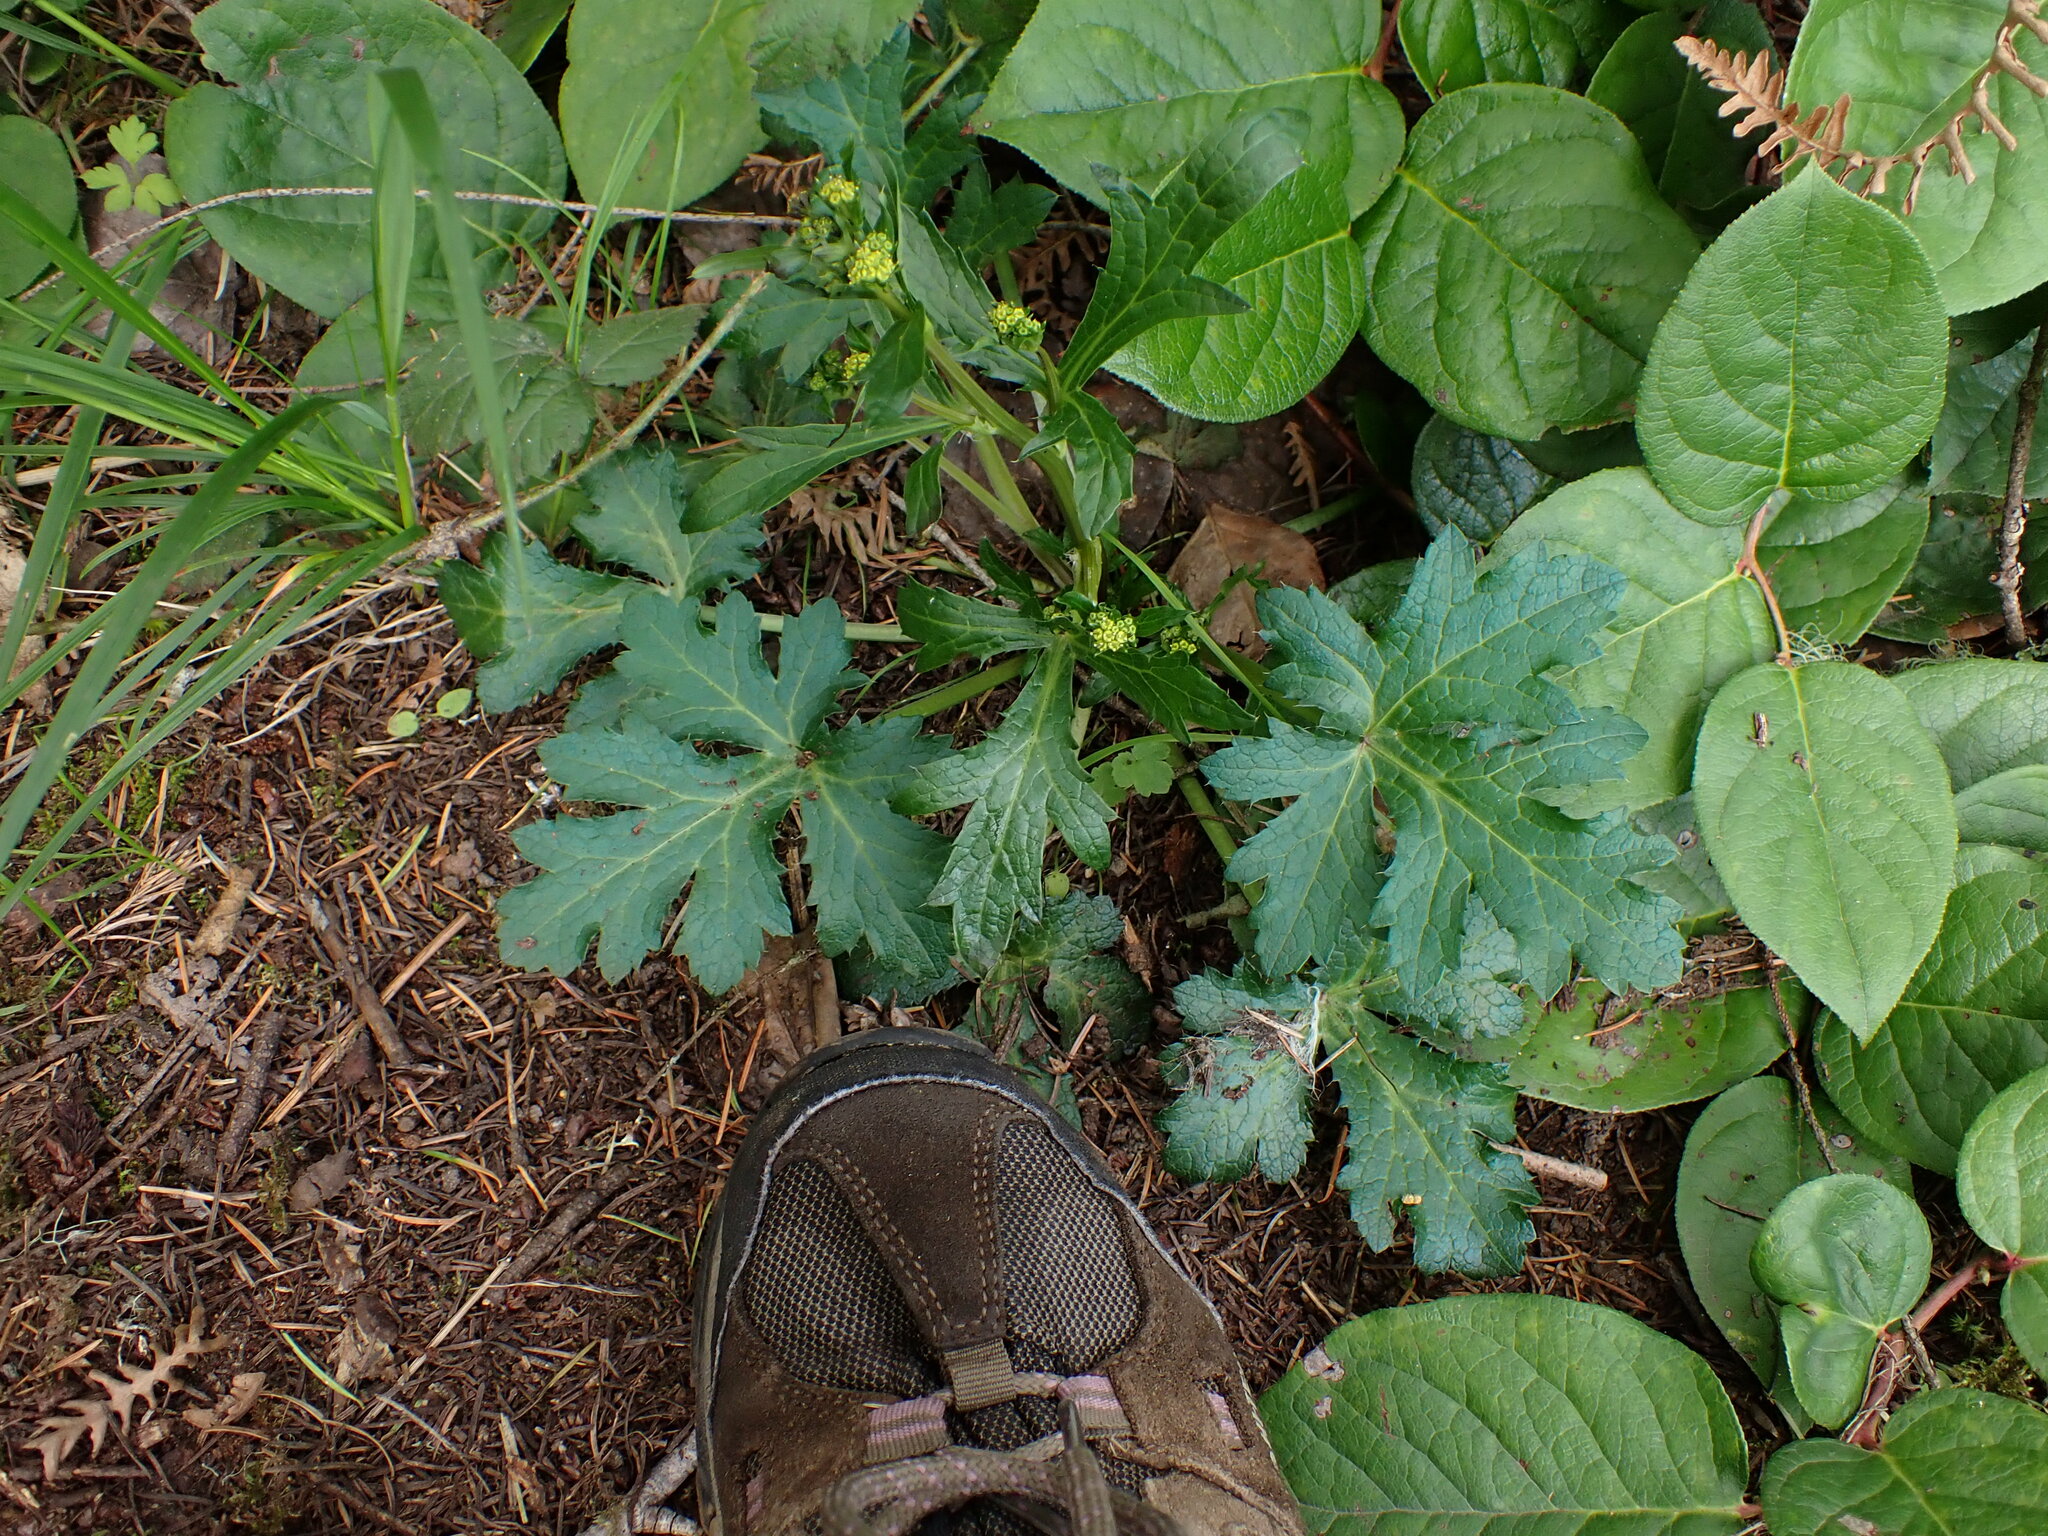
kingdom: Plantae
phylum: Tracheophyta
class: Magnoliopsida
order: Apiales
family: Apiaceae
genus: Sanicula
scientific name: Sanicula crassicaulis
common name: Western snakeroot
